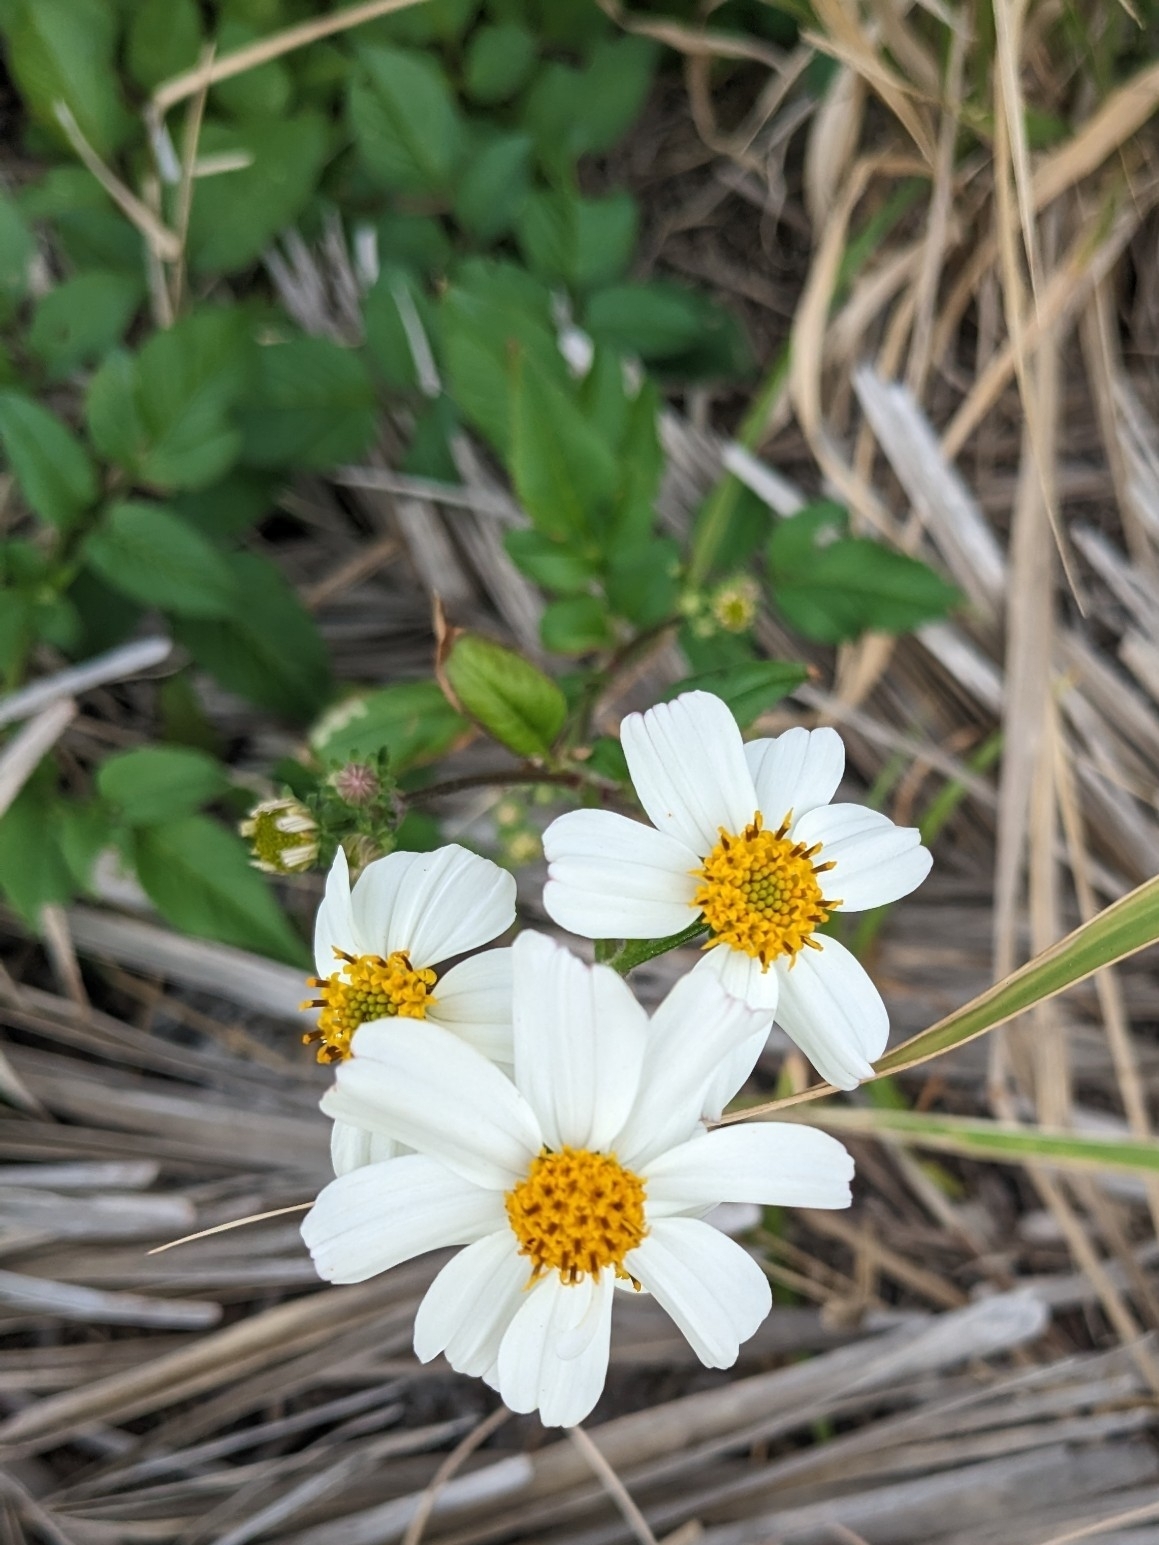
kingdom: Plantae
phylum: Tracheophyta
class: Magnoliopsida
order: Asterales
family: Asteraceae
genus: Bidens
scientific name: Bidens alba
